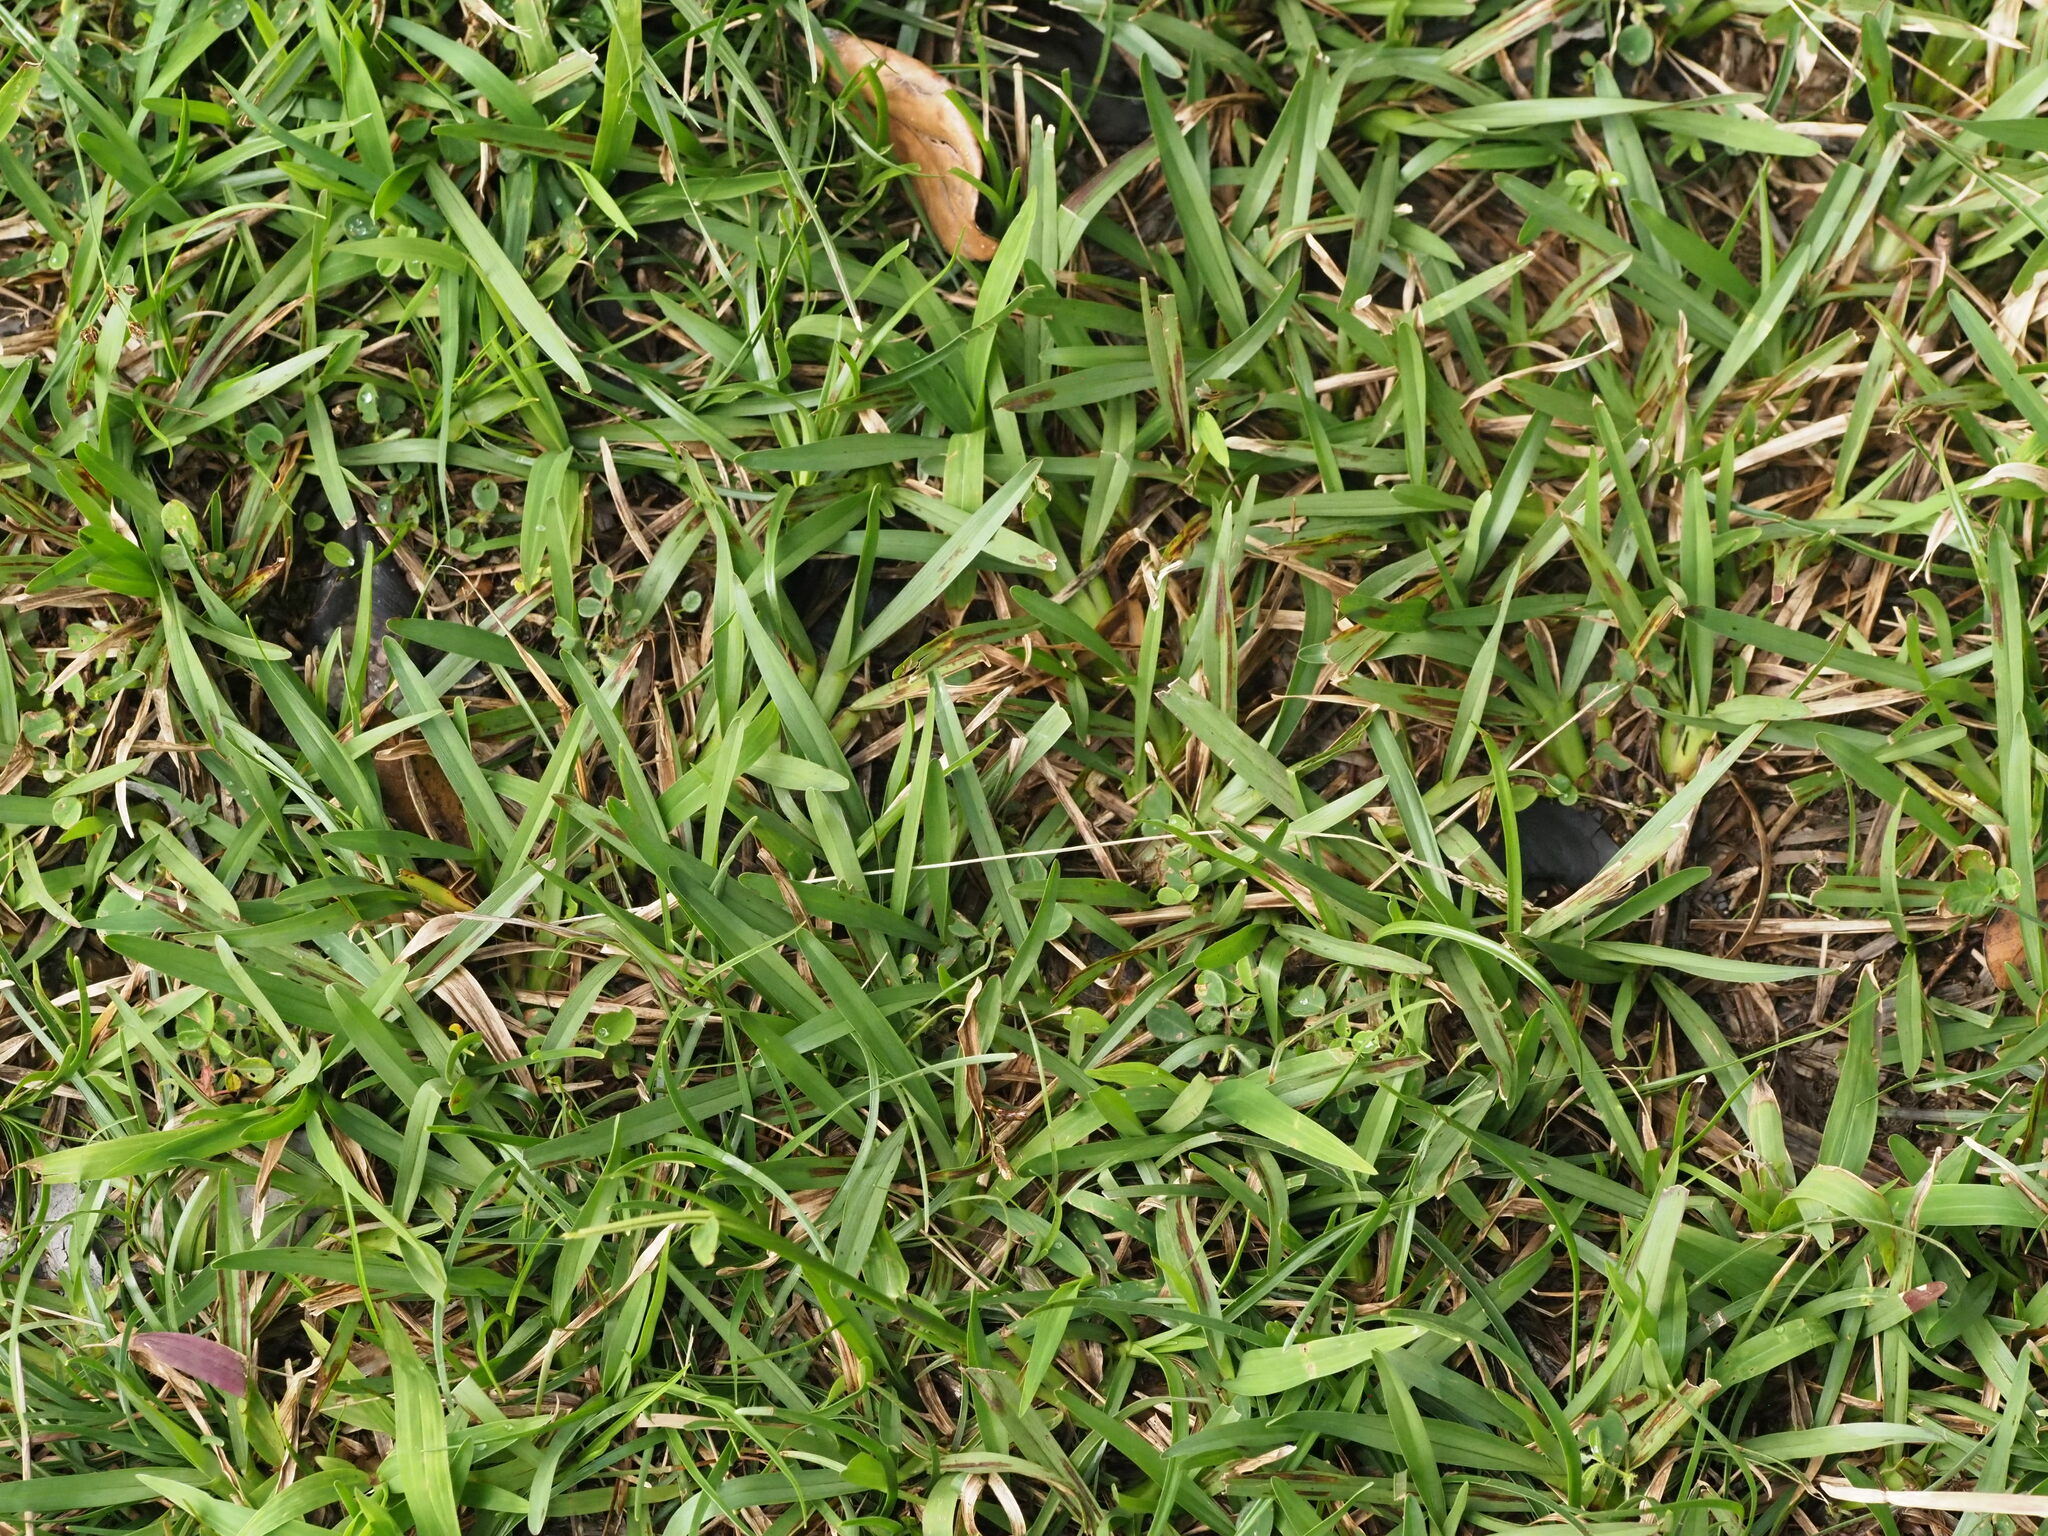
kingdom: Plantae
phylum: Tracheophyta
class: Liliopsida
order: Poales
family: Poaceae
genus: Axonopus
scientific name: Axonopus fissifolius
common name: Common carpetgrass
